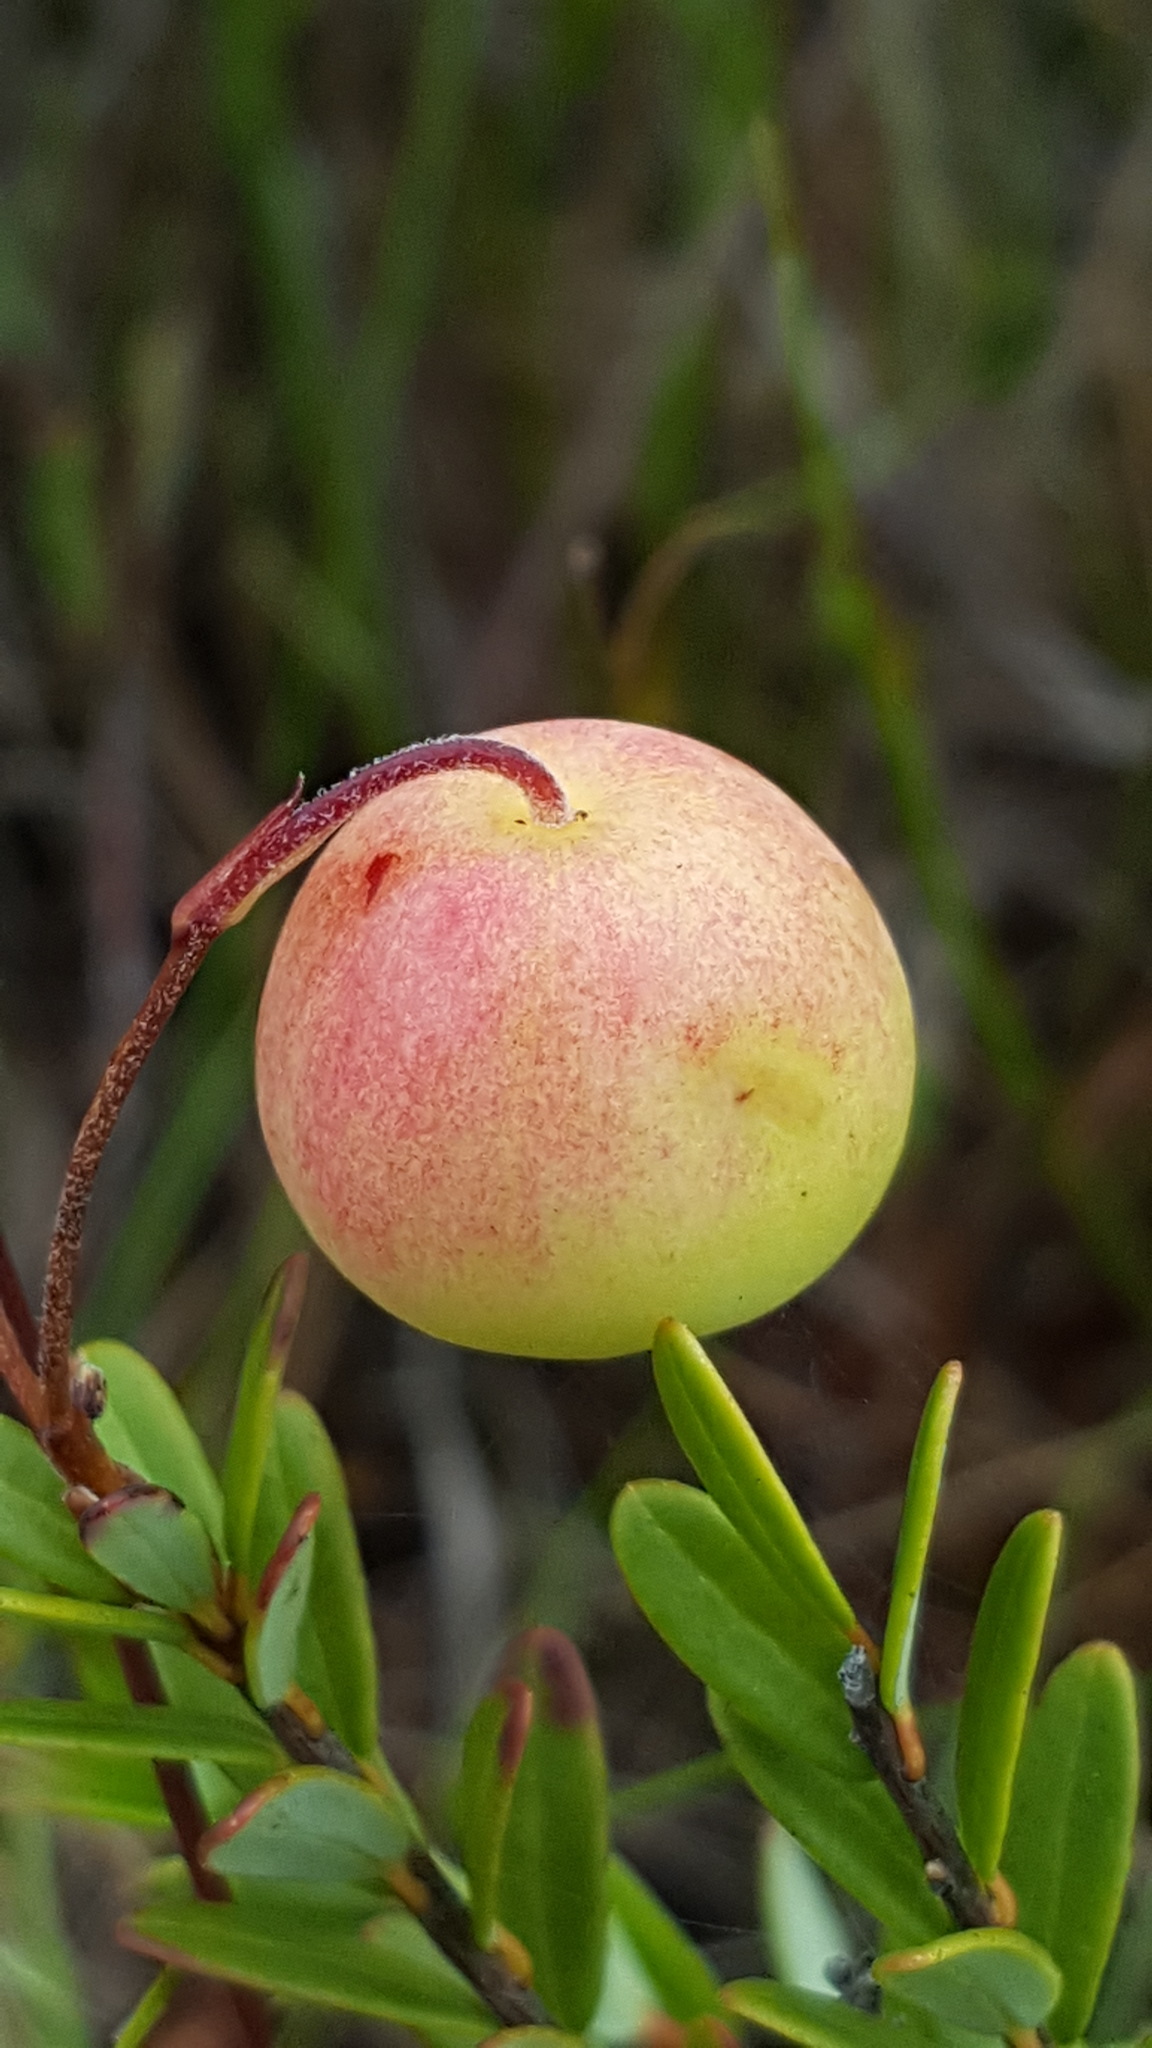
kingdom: Plantae
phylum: Tracheophyta
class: Magnoliopsida
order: Ericales
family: Ericaceae
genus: Vaccinium
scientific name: Vaccinium macrocarpon
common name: American cranberry
